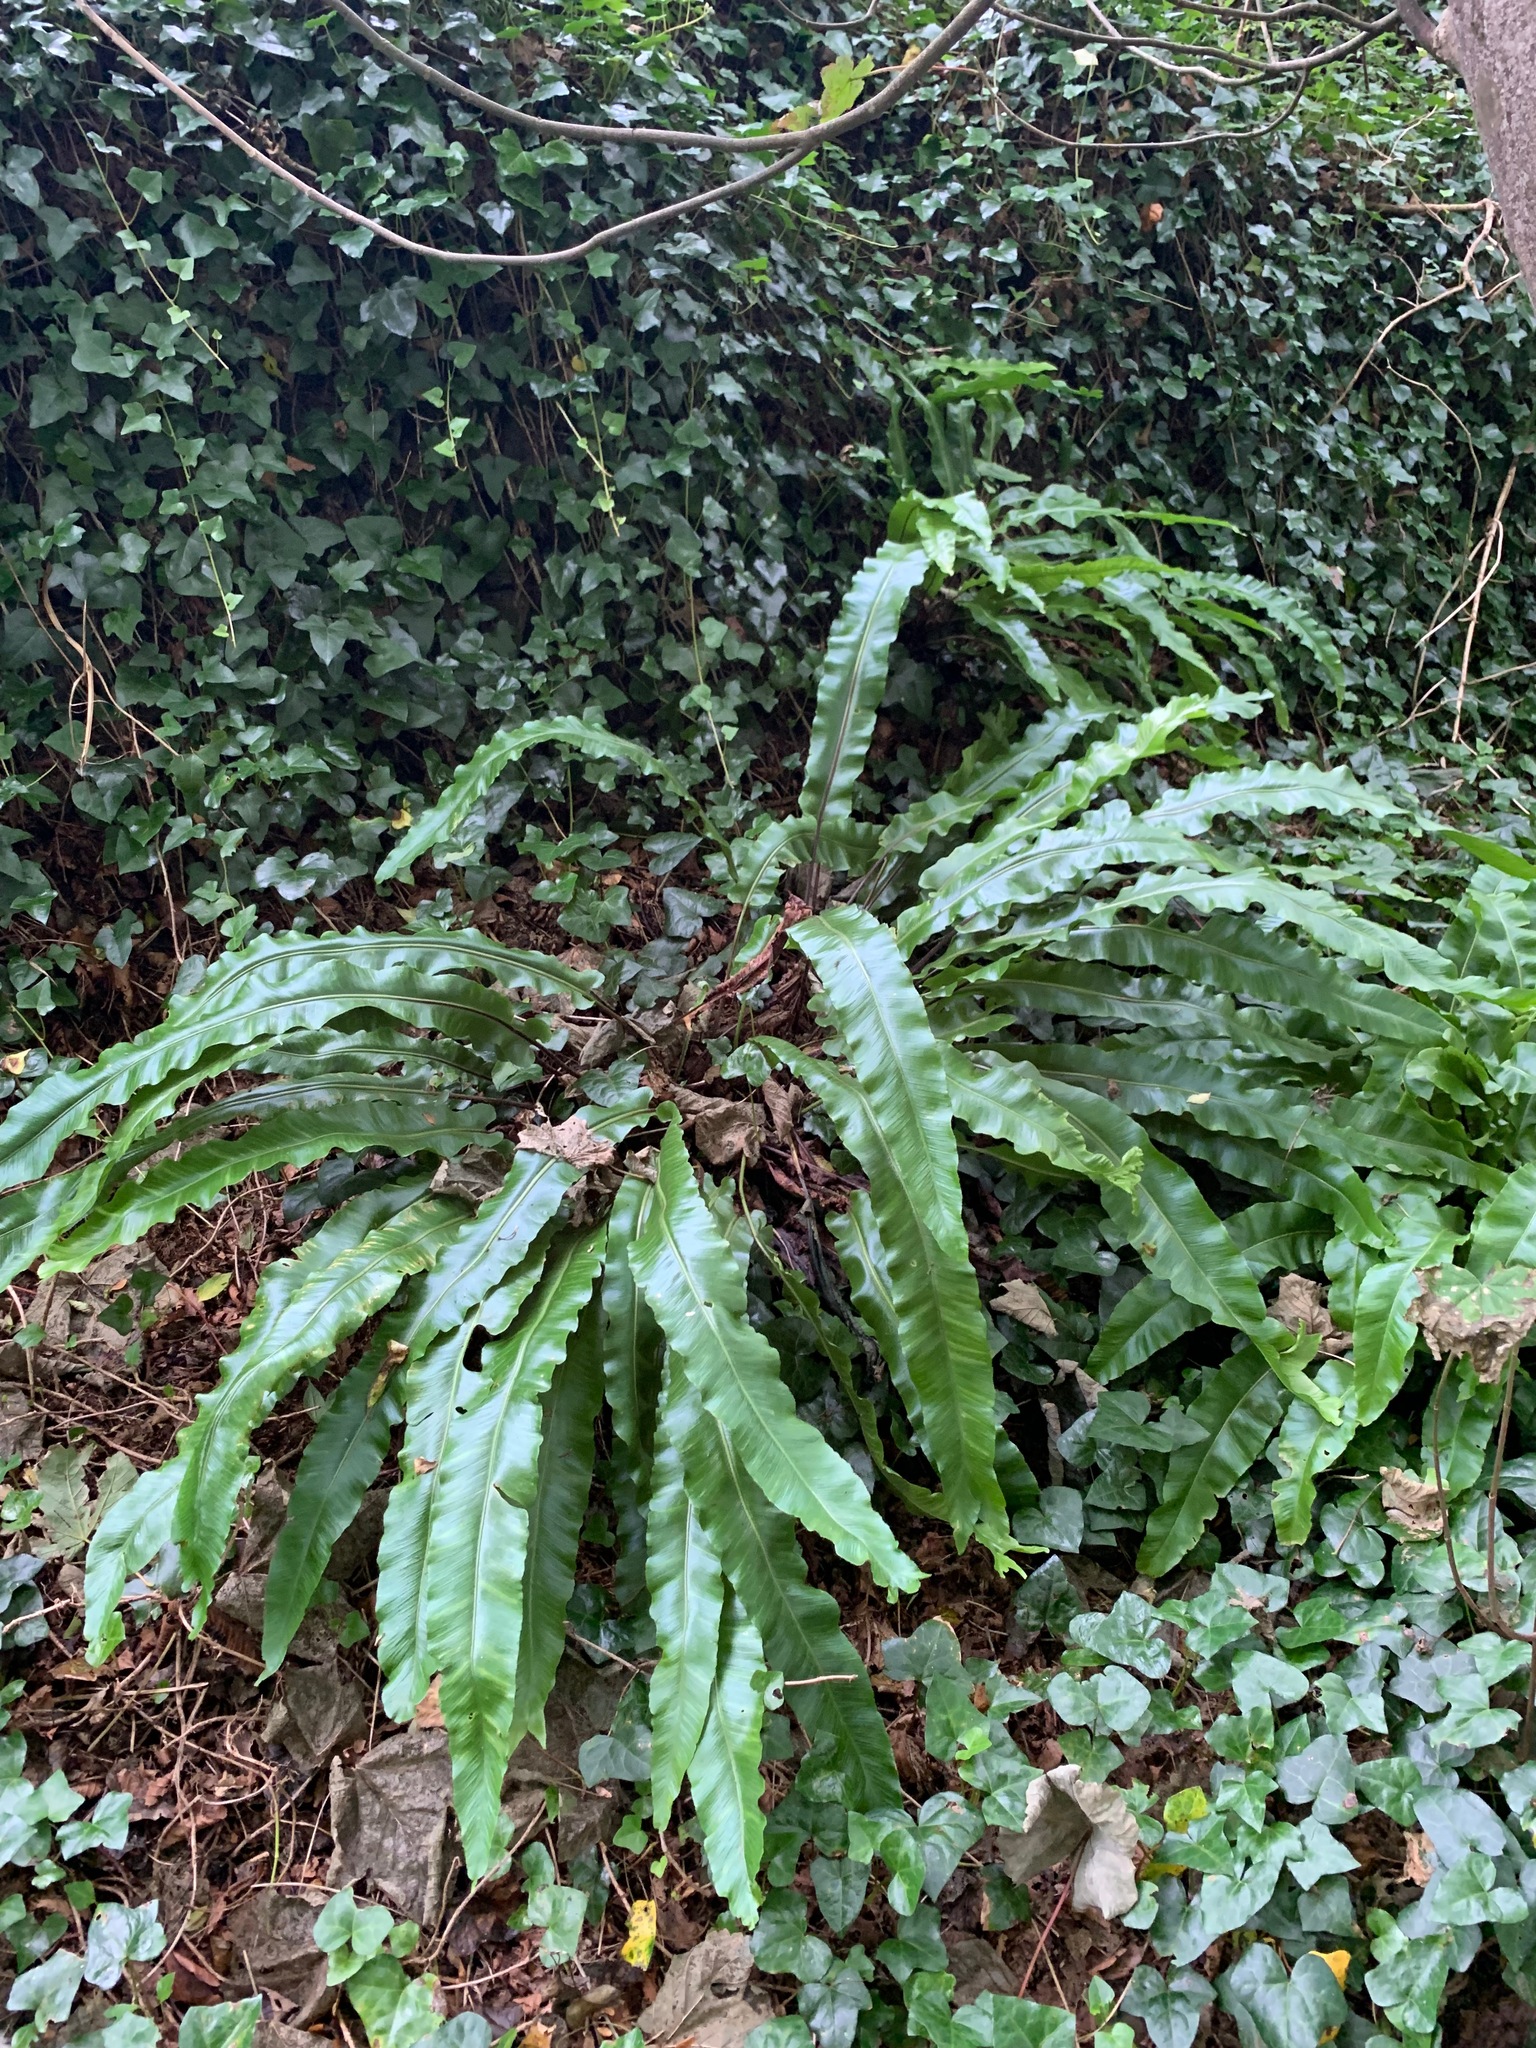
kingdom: Plantae
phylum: Tracheophyta
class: Polypodiopsida
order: Polypodiales
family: Aspleniaceae
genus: Asplenium
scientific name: Asplenium scolopendrium
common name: Hart's-tongue fern
